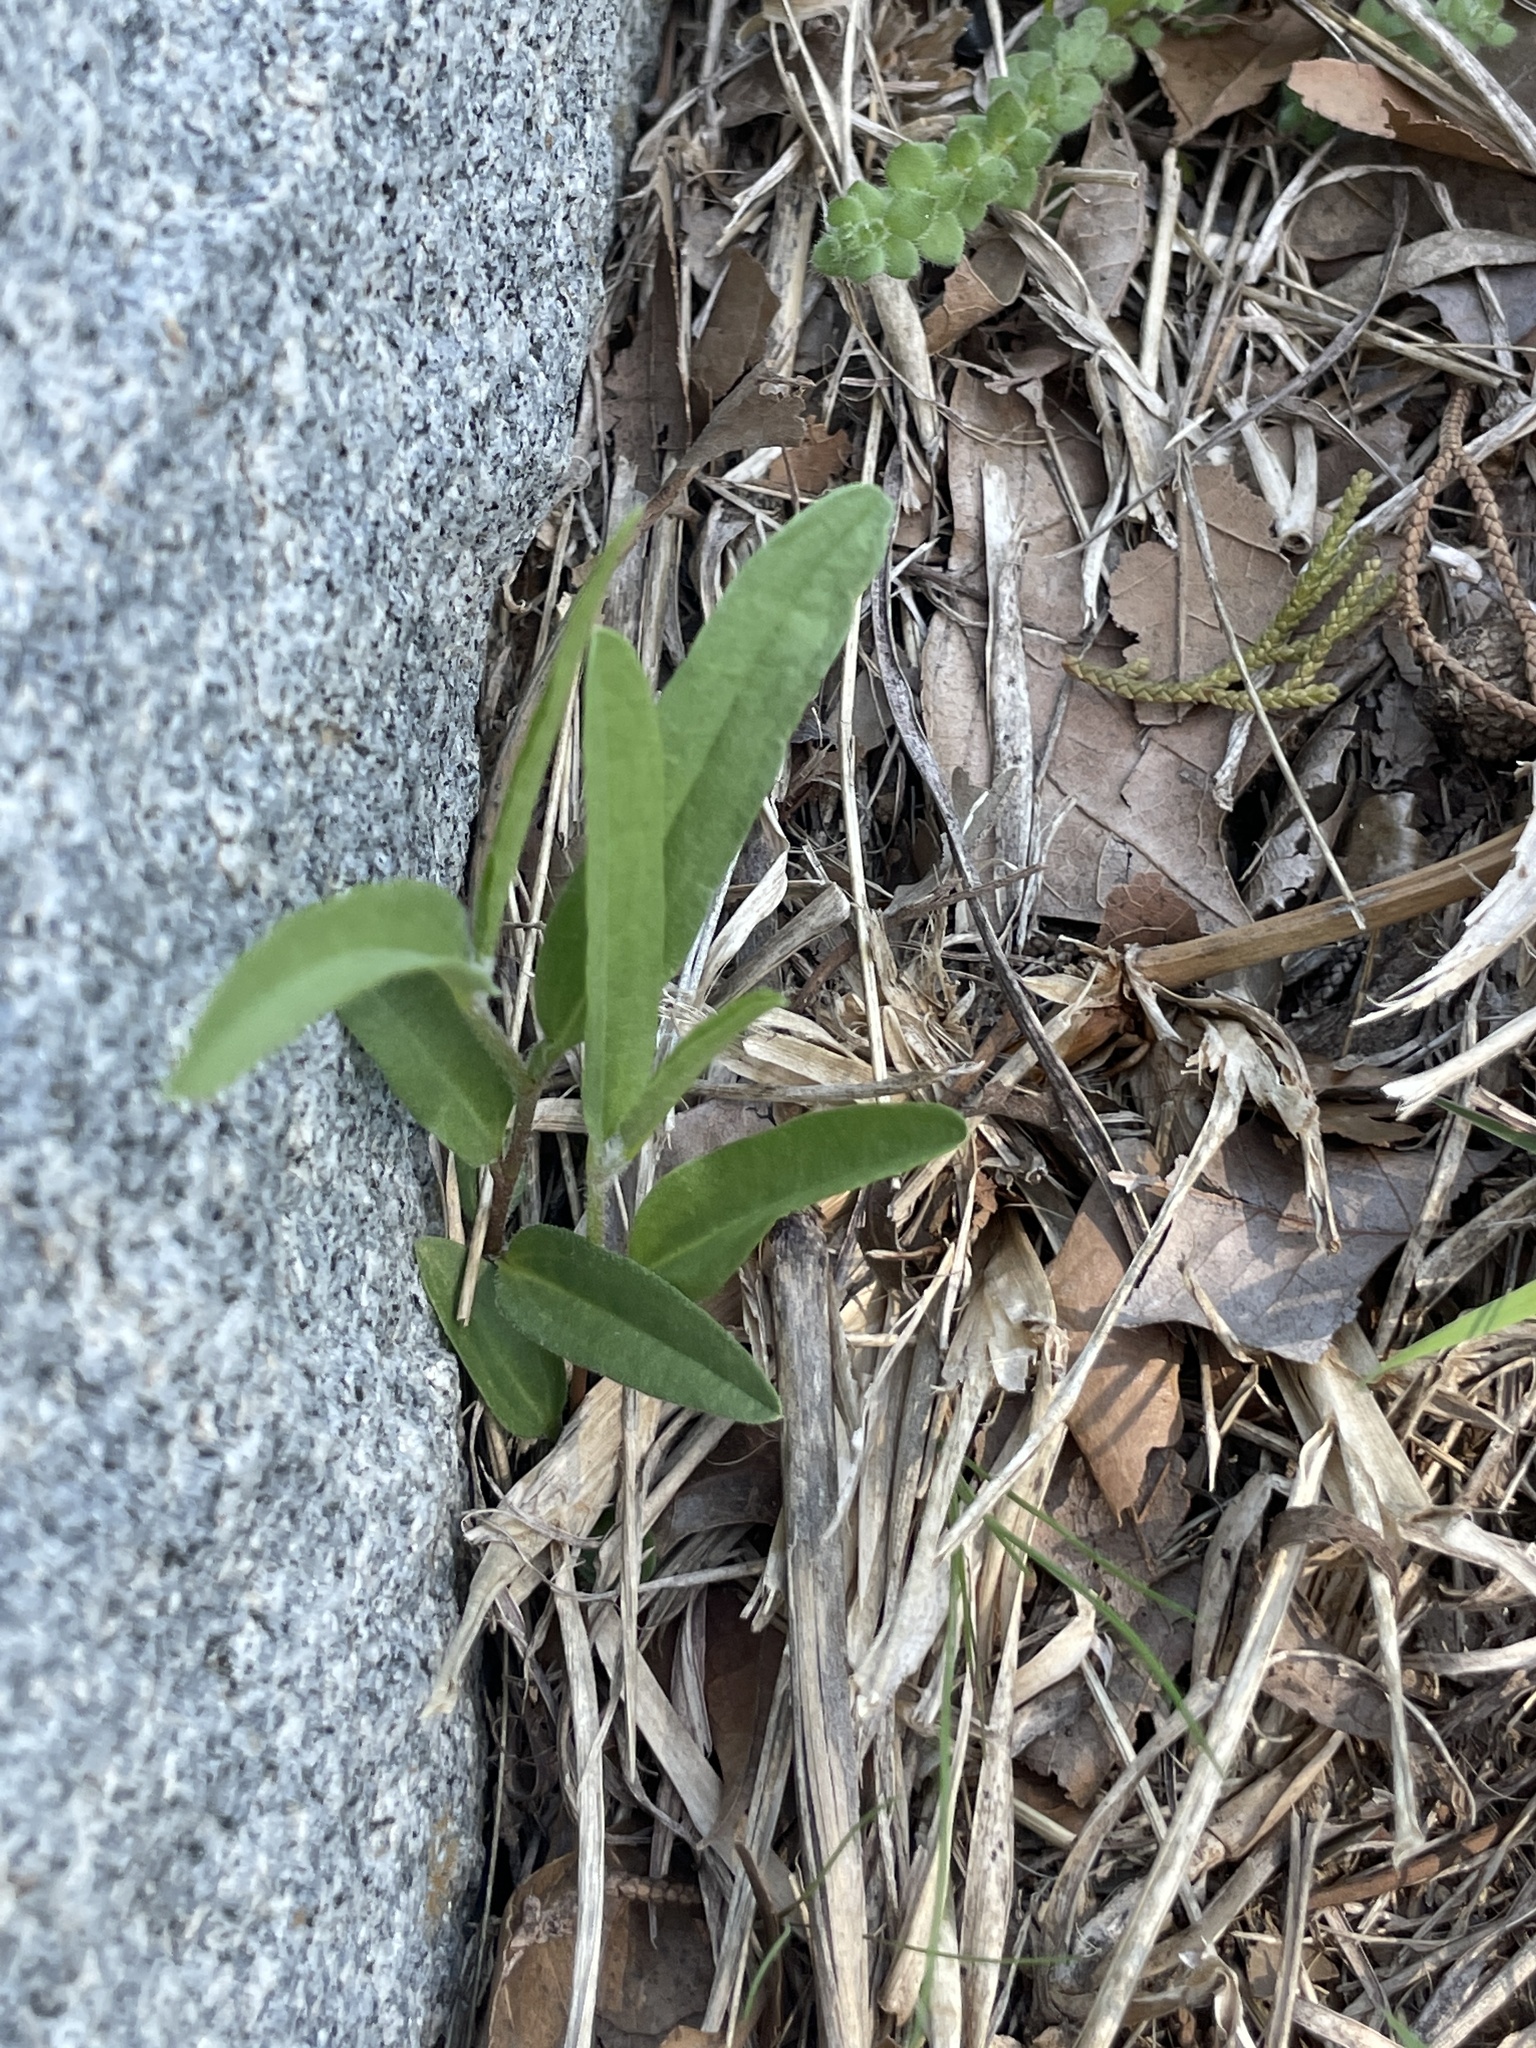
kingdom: Plantae
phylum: Tracheophyta
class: Magnoliopsida
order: Piperales
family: Aristolochiaceae
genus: Aristolochia
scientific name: Aristolochia erecta
